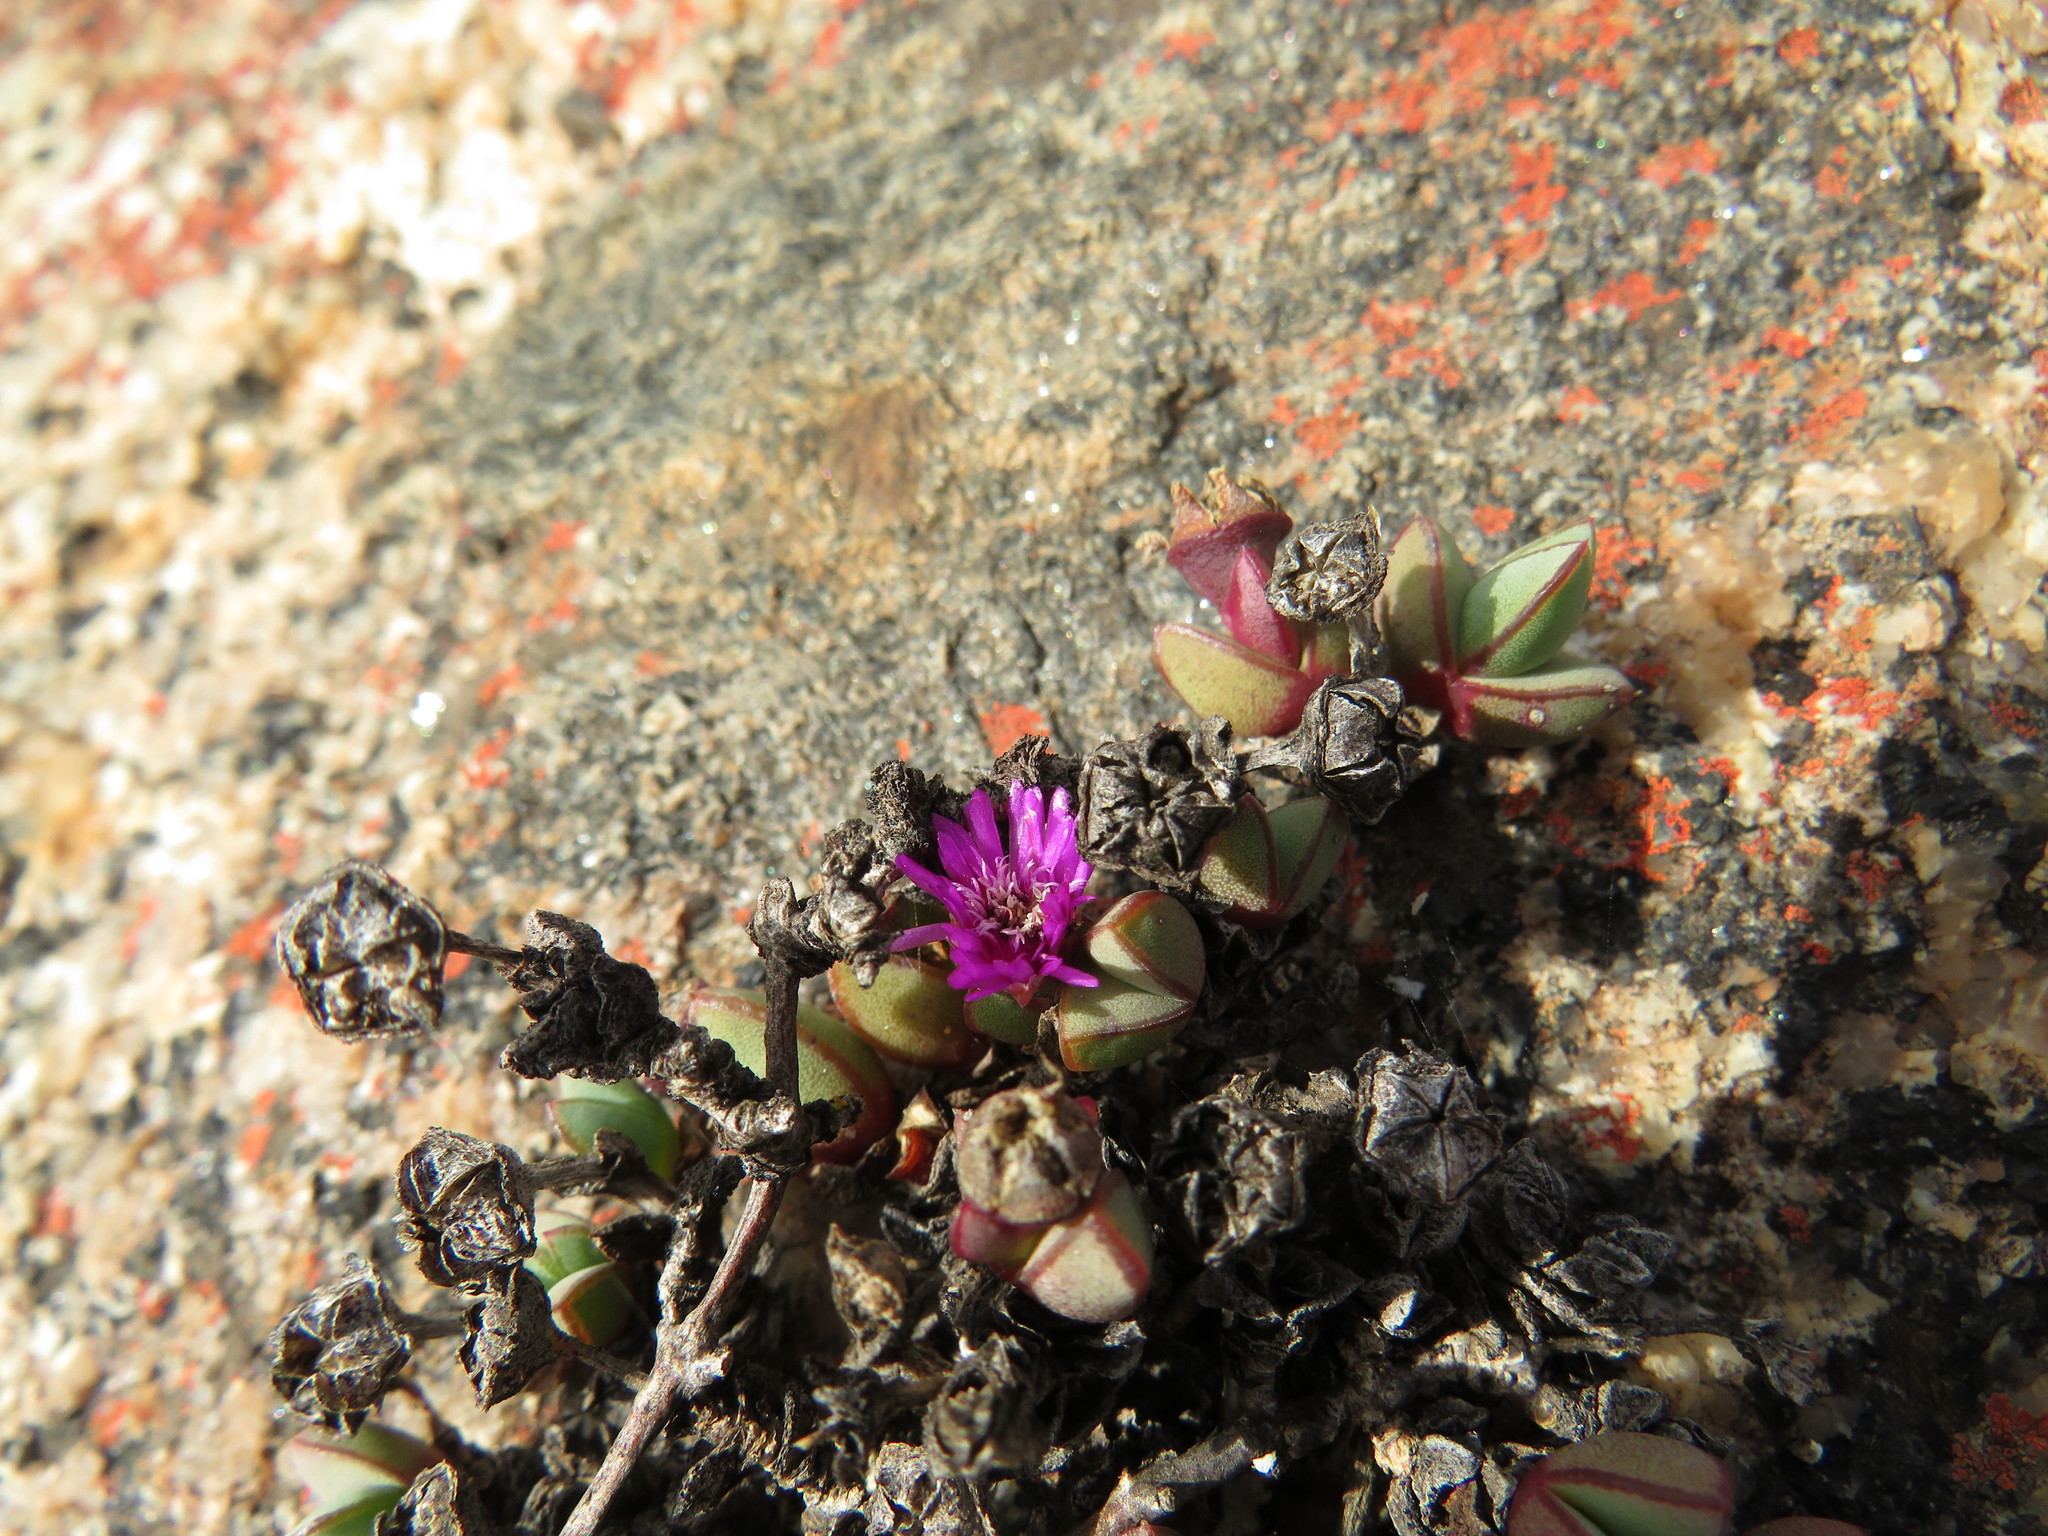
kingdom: Plantae
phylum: Tracheophyta
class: Magnoliopsida
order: Caryophyllales
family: Aizoaceae
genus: Antimima
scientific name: Antimima granitica
